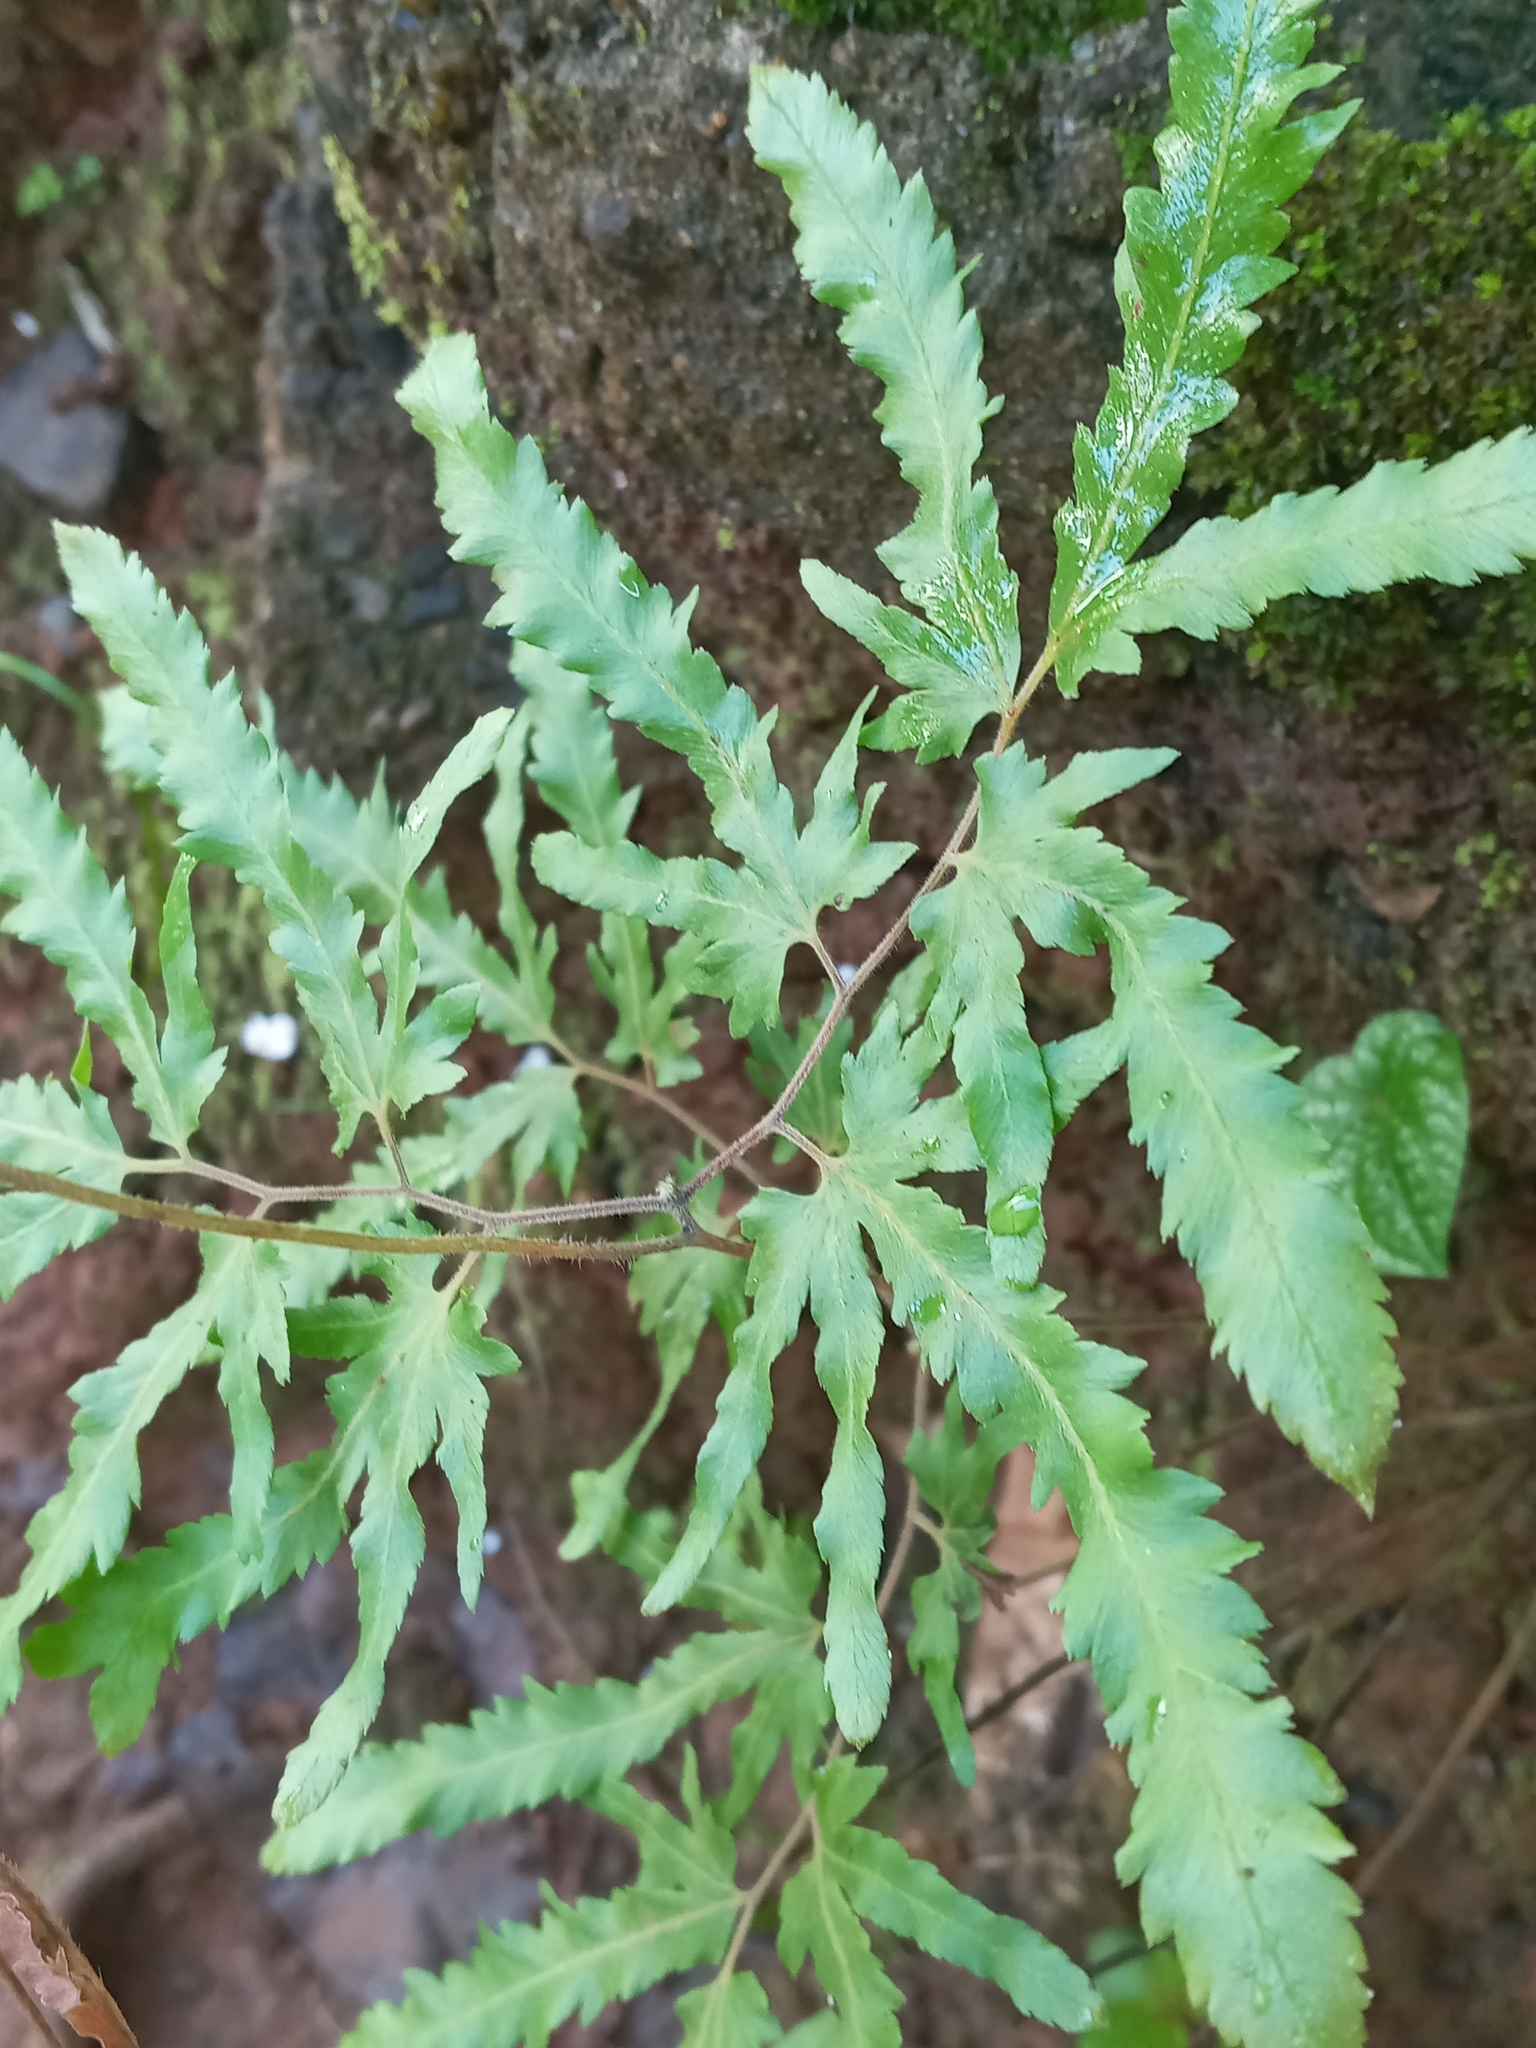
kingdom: Plantae
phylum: Tracheophyta
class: Polypodiopsida
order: Schizaeales
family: Lygodiaceae
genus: Lygodium
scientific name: Lygodium japonicum
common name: Japanese climbing fern
